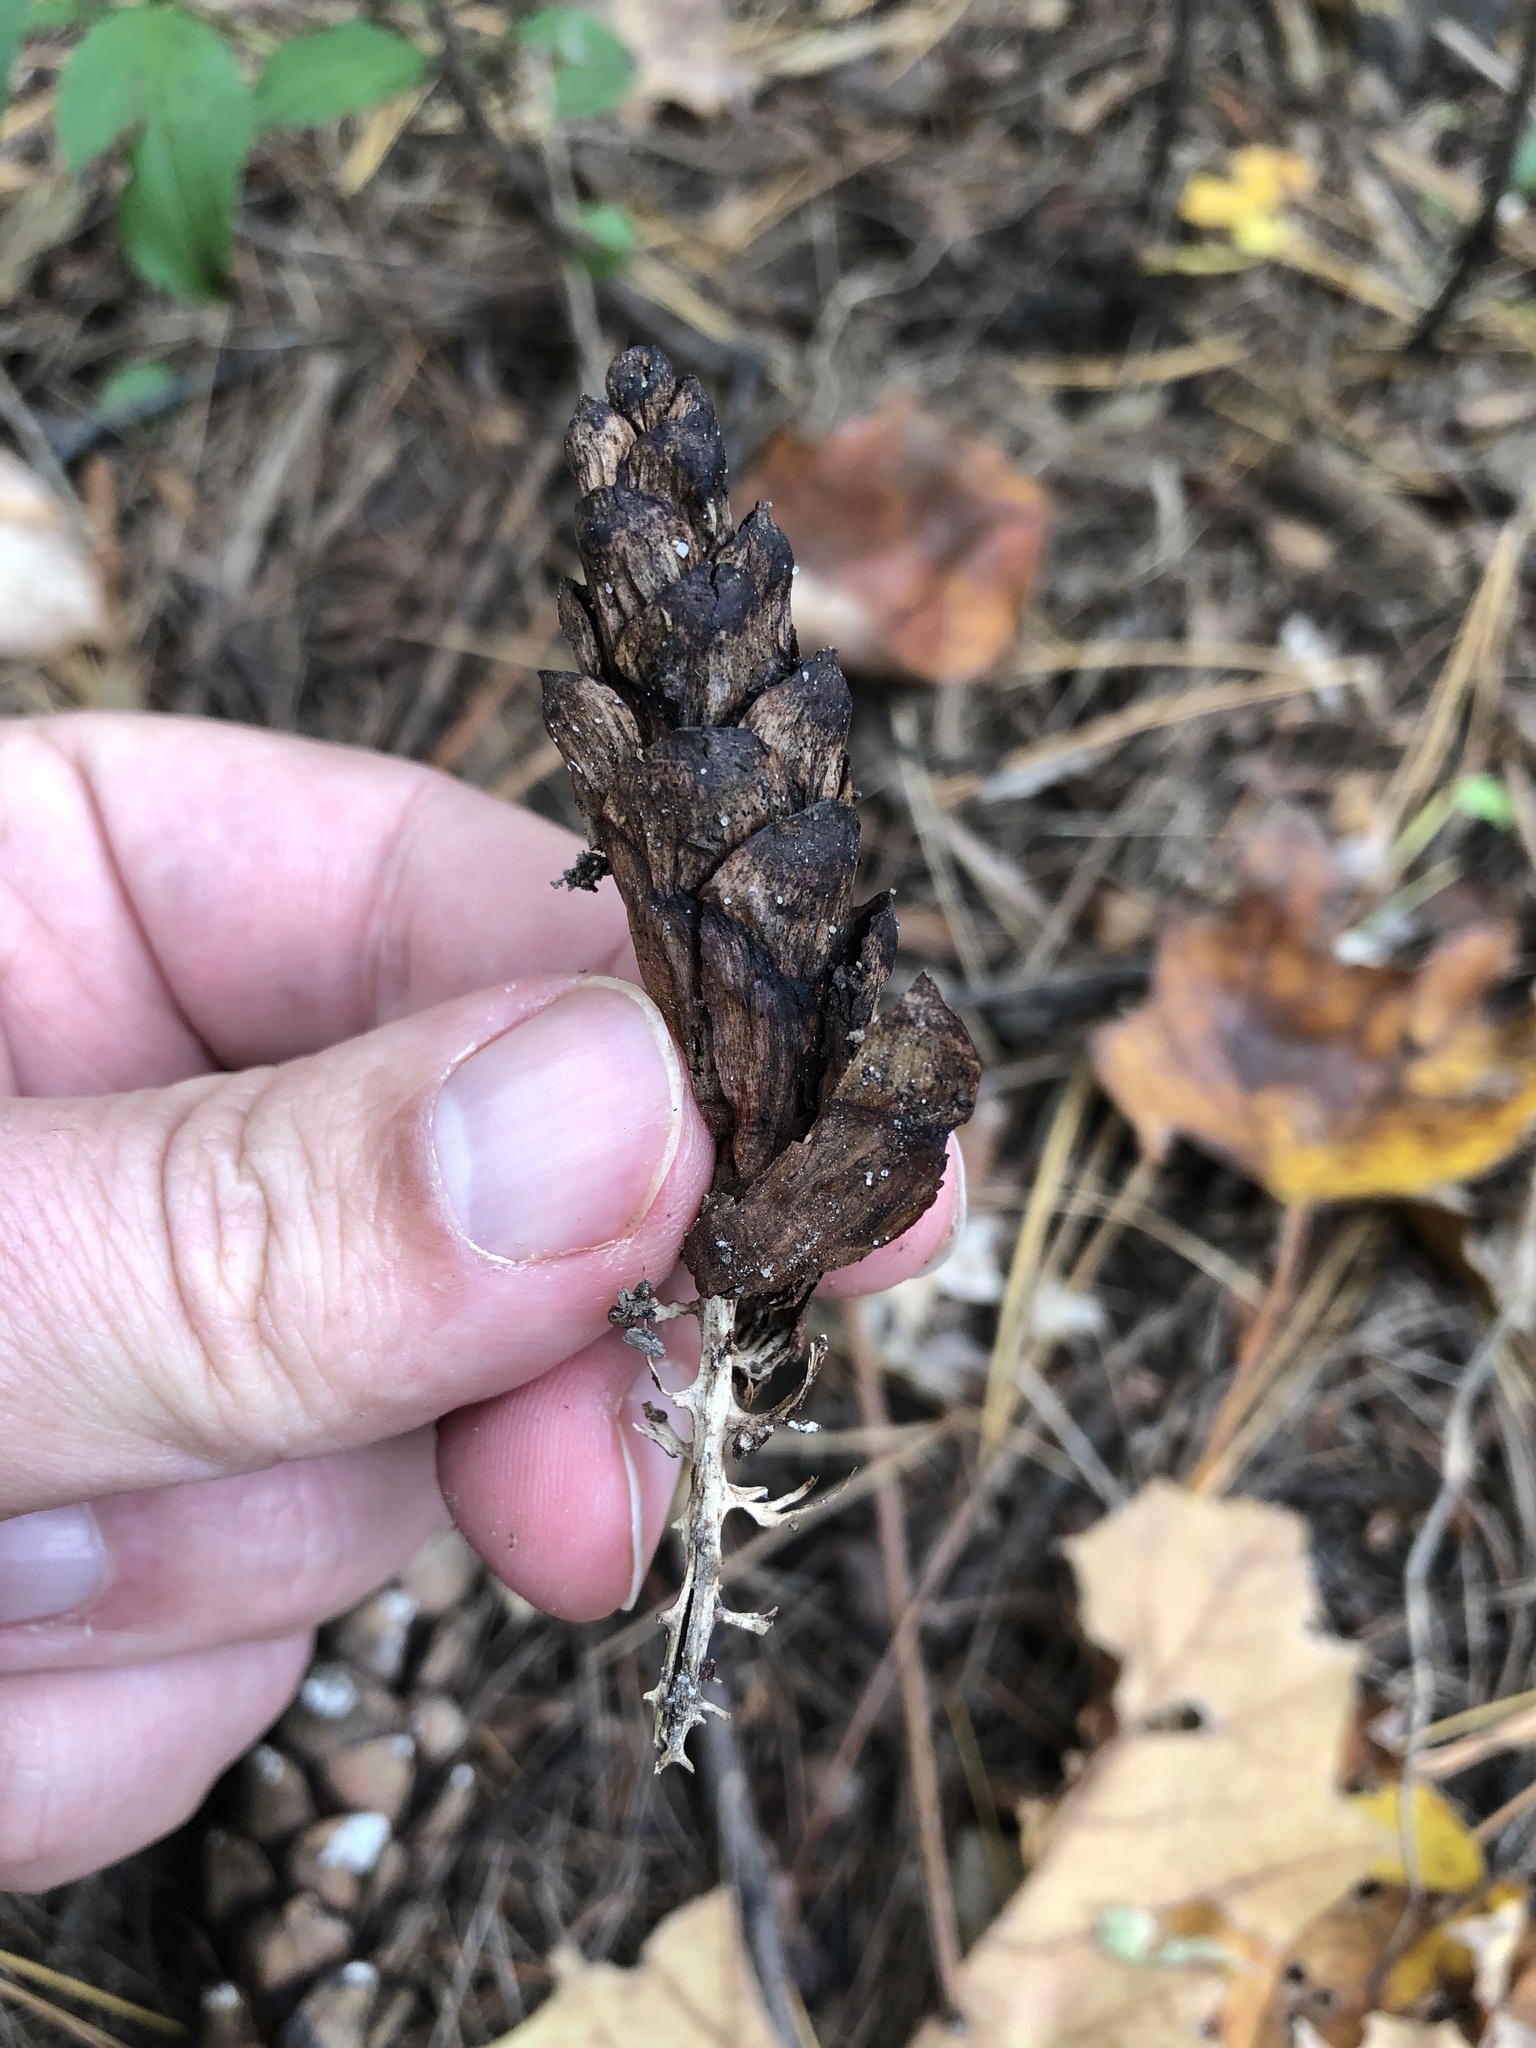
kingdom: Plantae
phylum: Tracheophyta
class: Pinopsida
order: Pinales
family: Pinaceae
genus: Pinus
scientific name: Pinus strobus
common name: Weymouth pine
